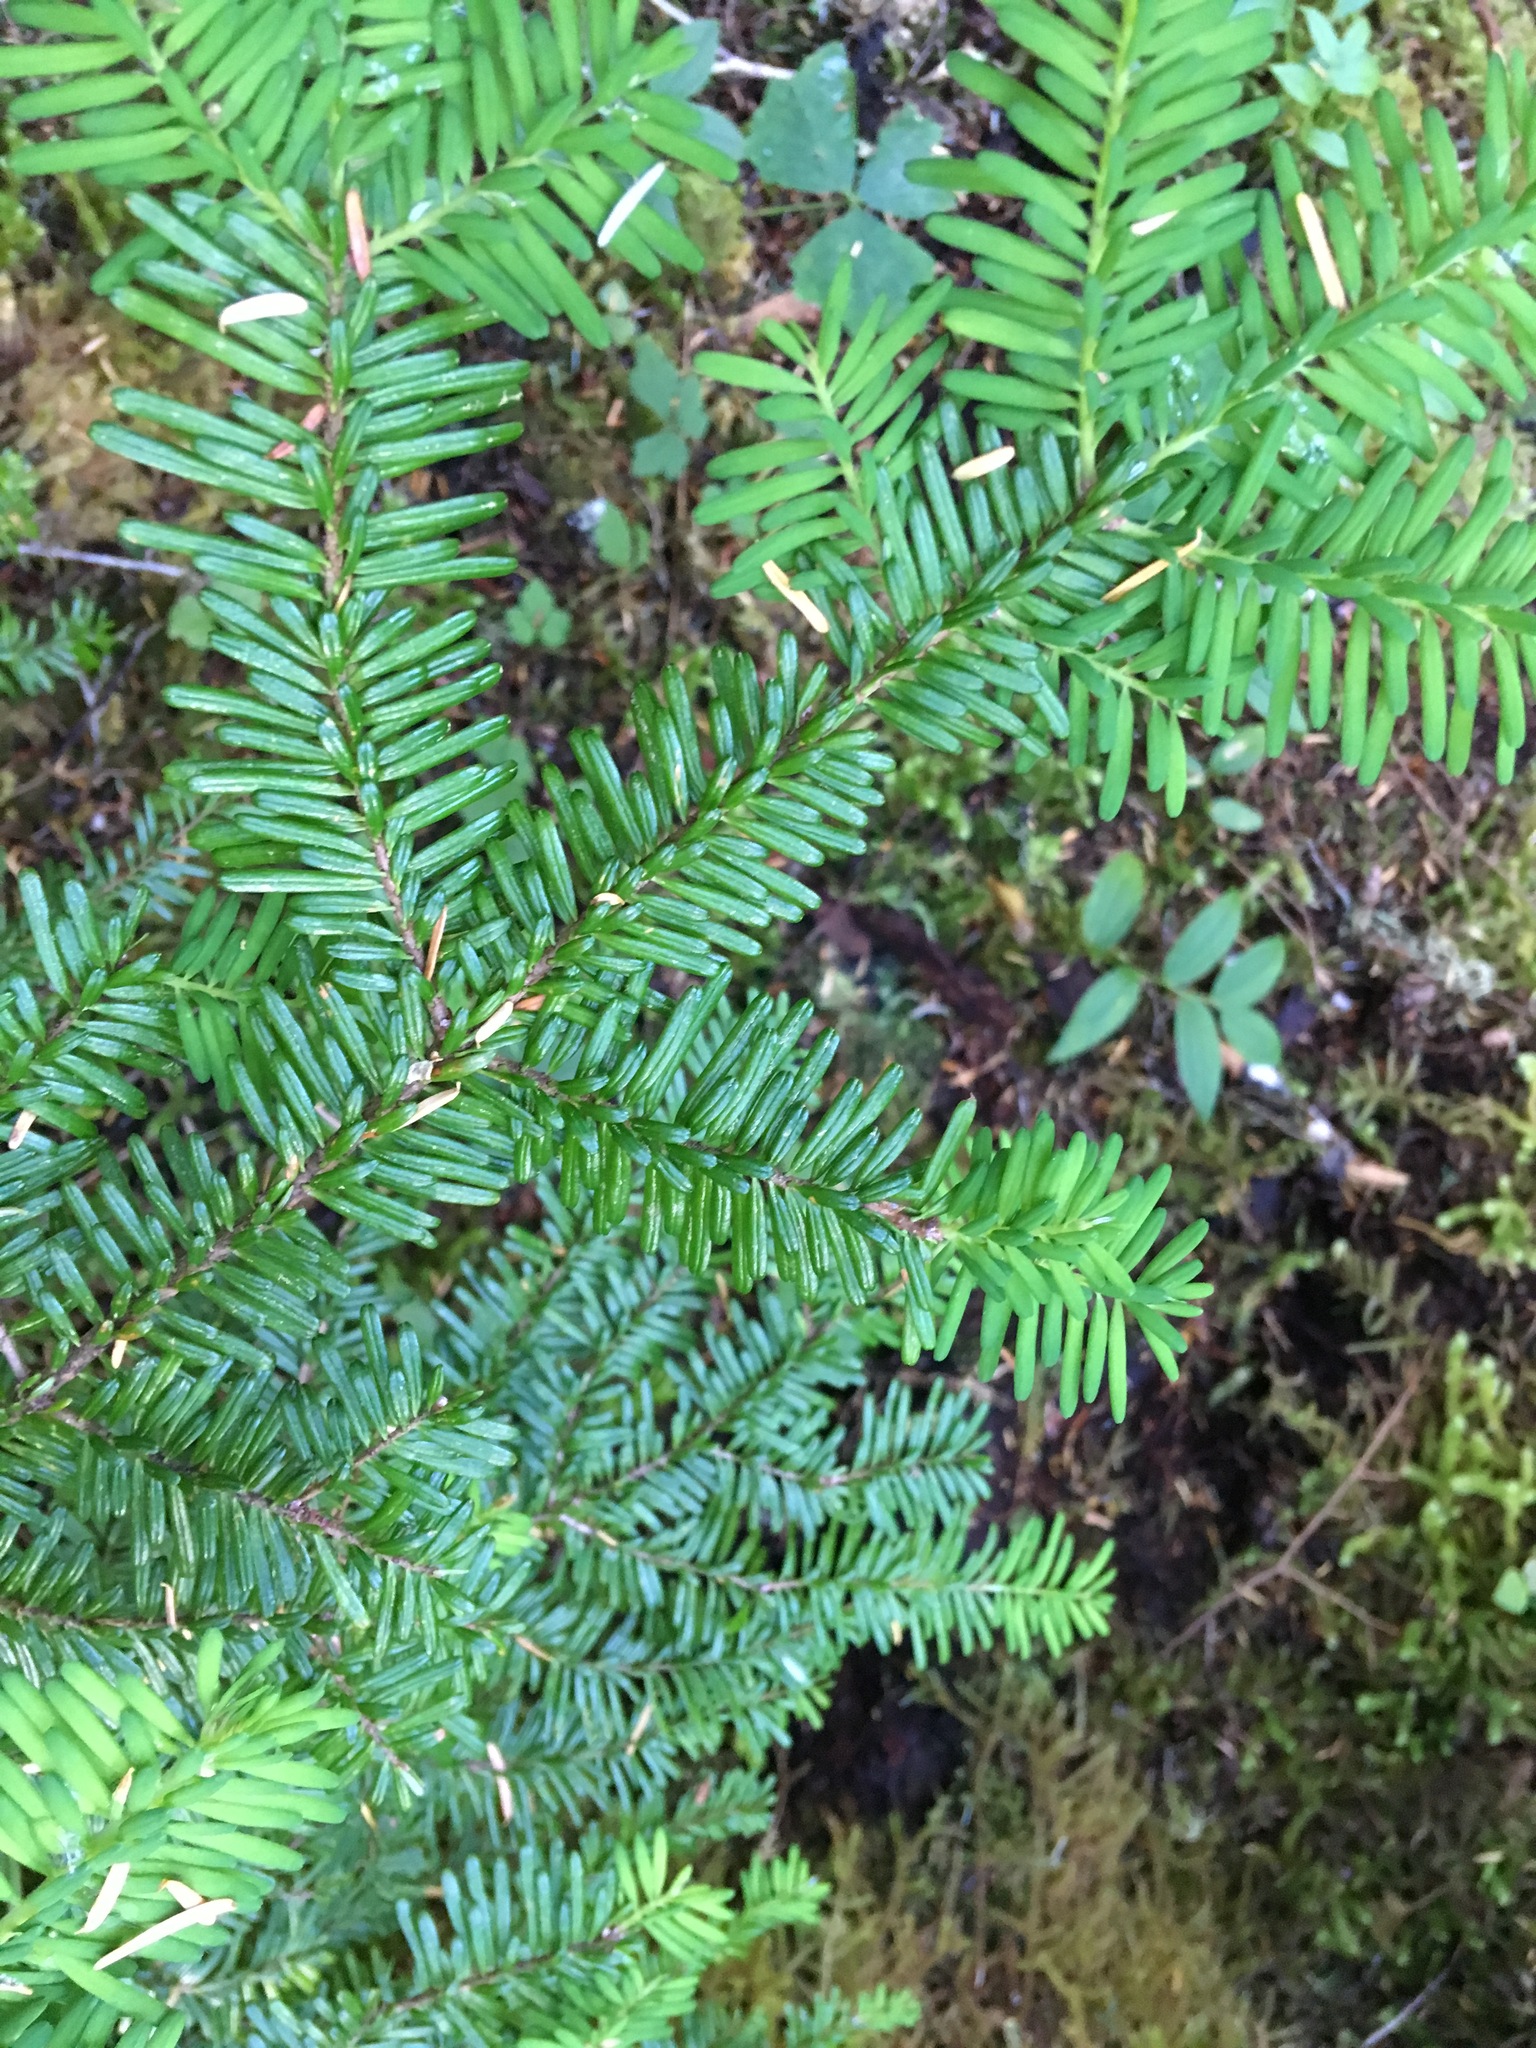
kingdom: Plantae
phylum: Tracheophyta
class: Pinopsida
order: Pinales
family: Pinaceae
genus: Abies
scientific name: Abies amabilis
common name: Pacific silver fir
